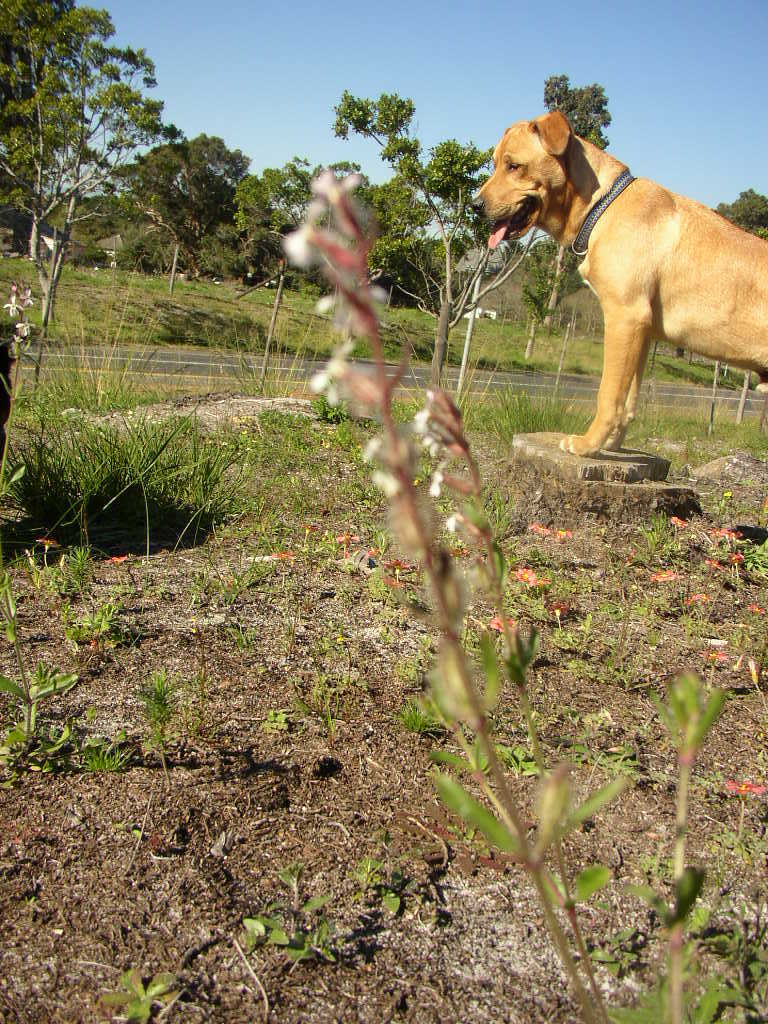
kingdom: Plantae
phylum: Tracheophyta
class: Magnoliopsida
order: Caryophyllales
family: Caryophyllaceae
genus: Silene
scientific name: Silene gallica
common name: Small-flowered catchfly
